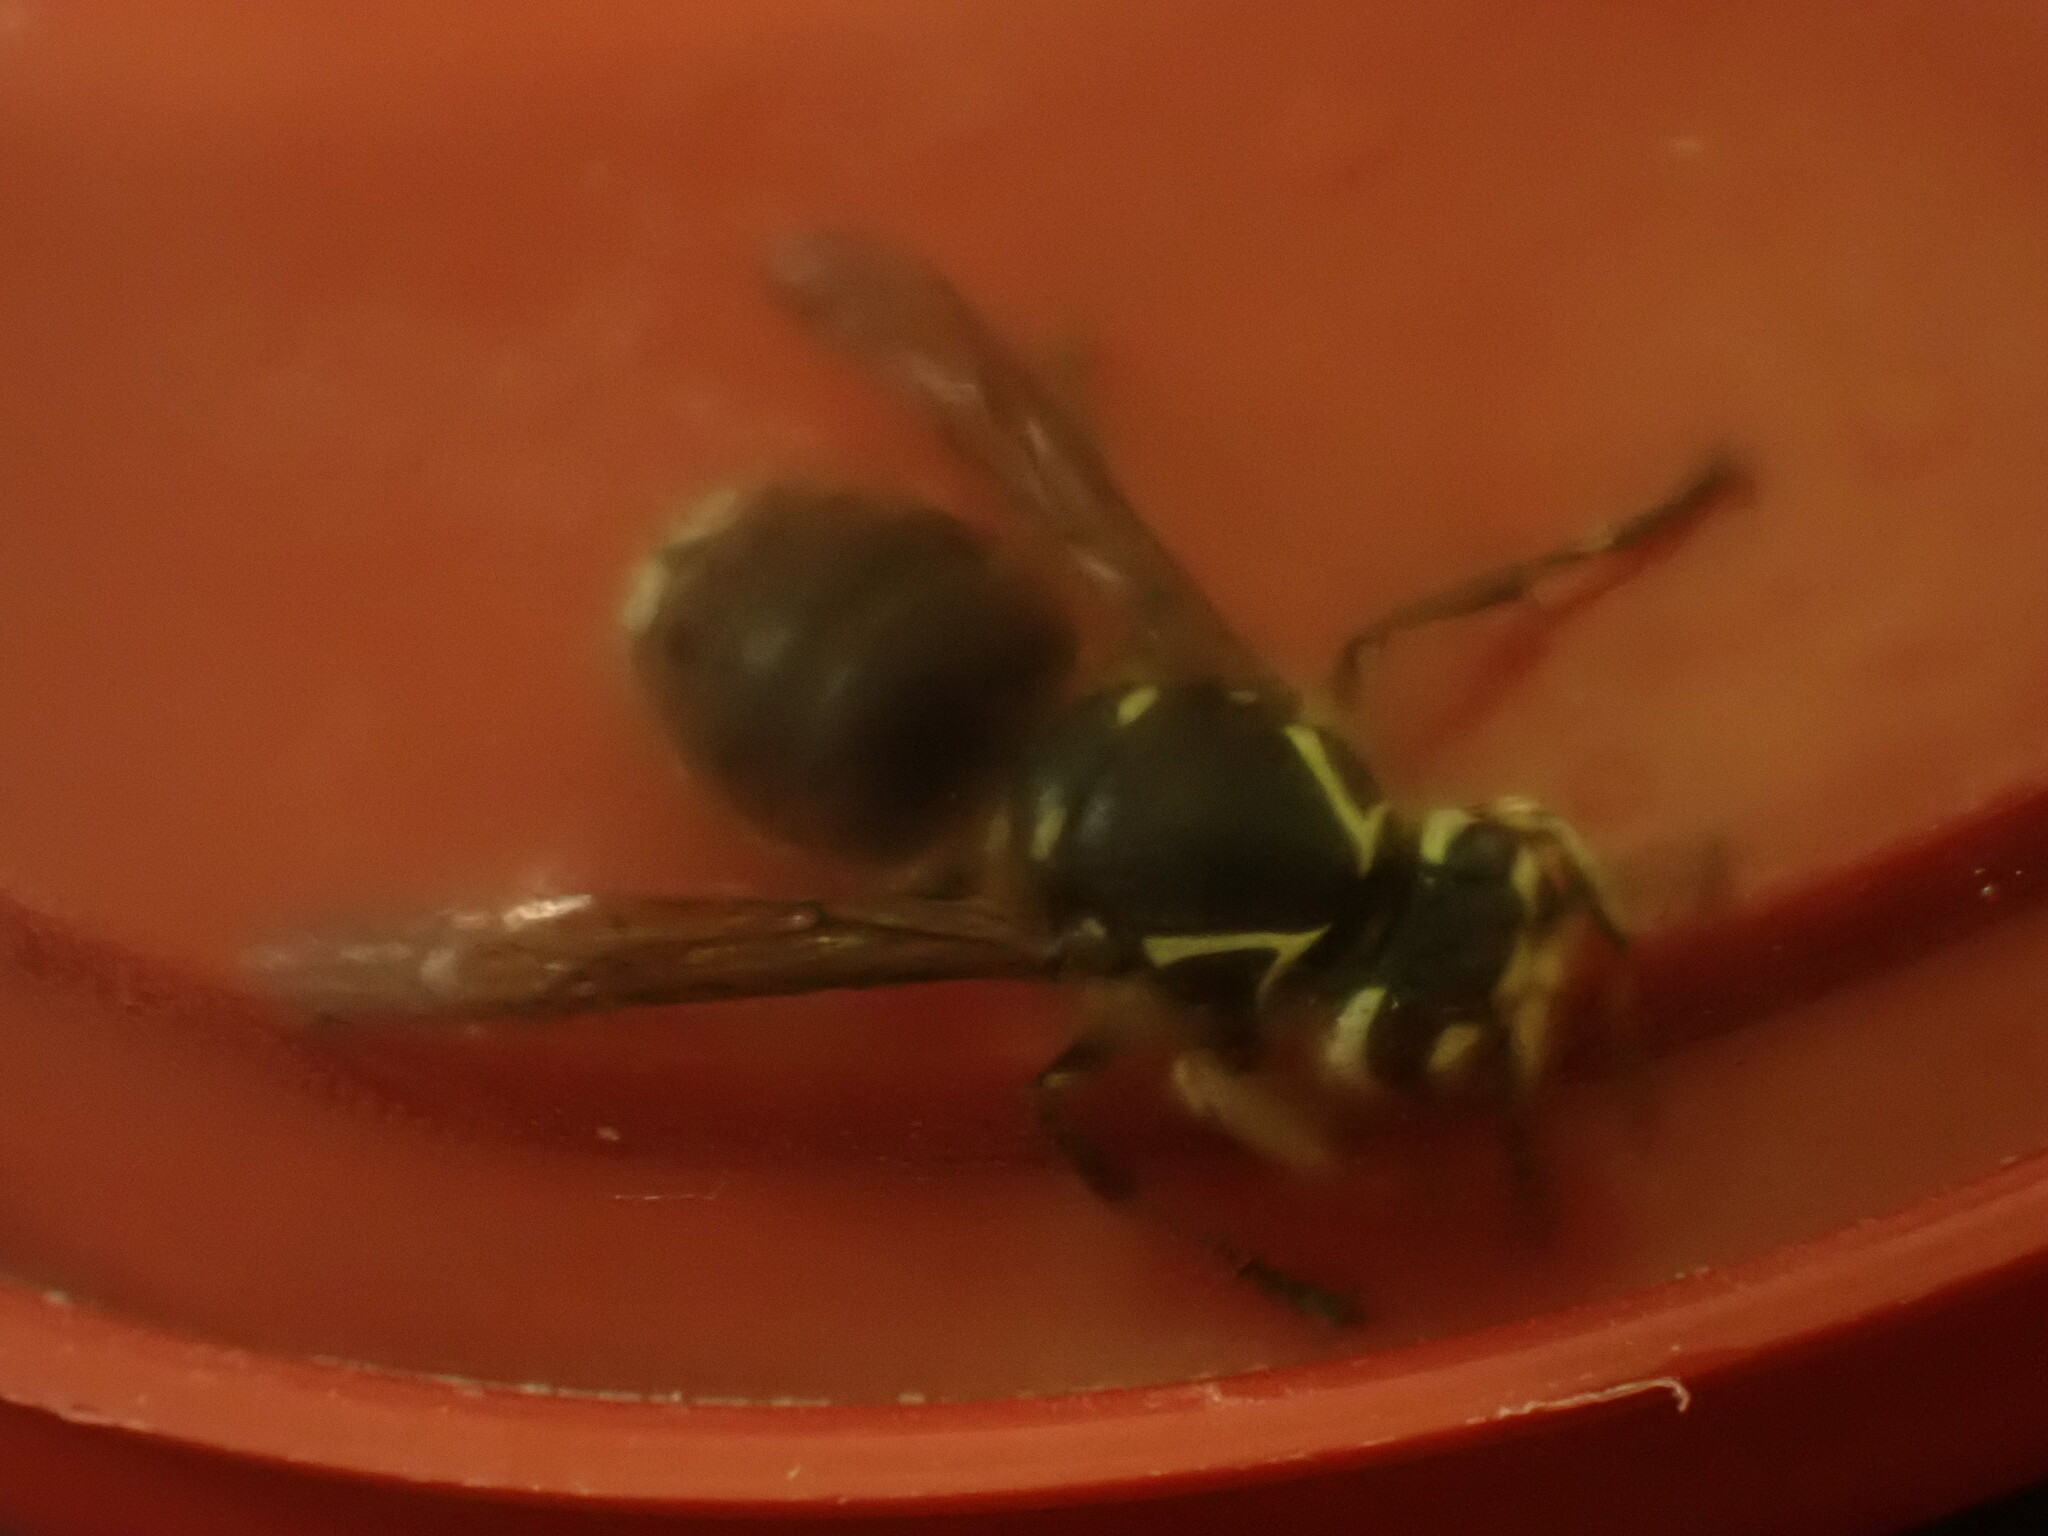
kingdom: Animalia
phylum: Arthropoda
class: Insecta
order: Hymenoptera
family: Vespidae
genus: Dolichovespula
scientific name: Dolichovespula maculata
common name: Bald-faced hornet
